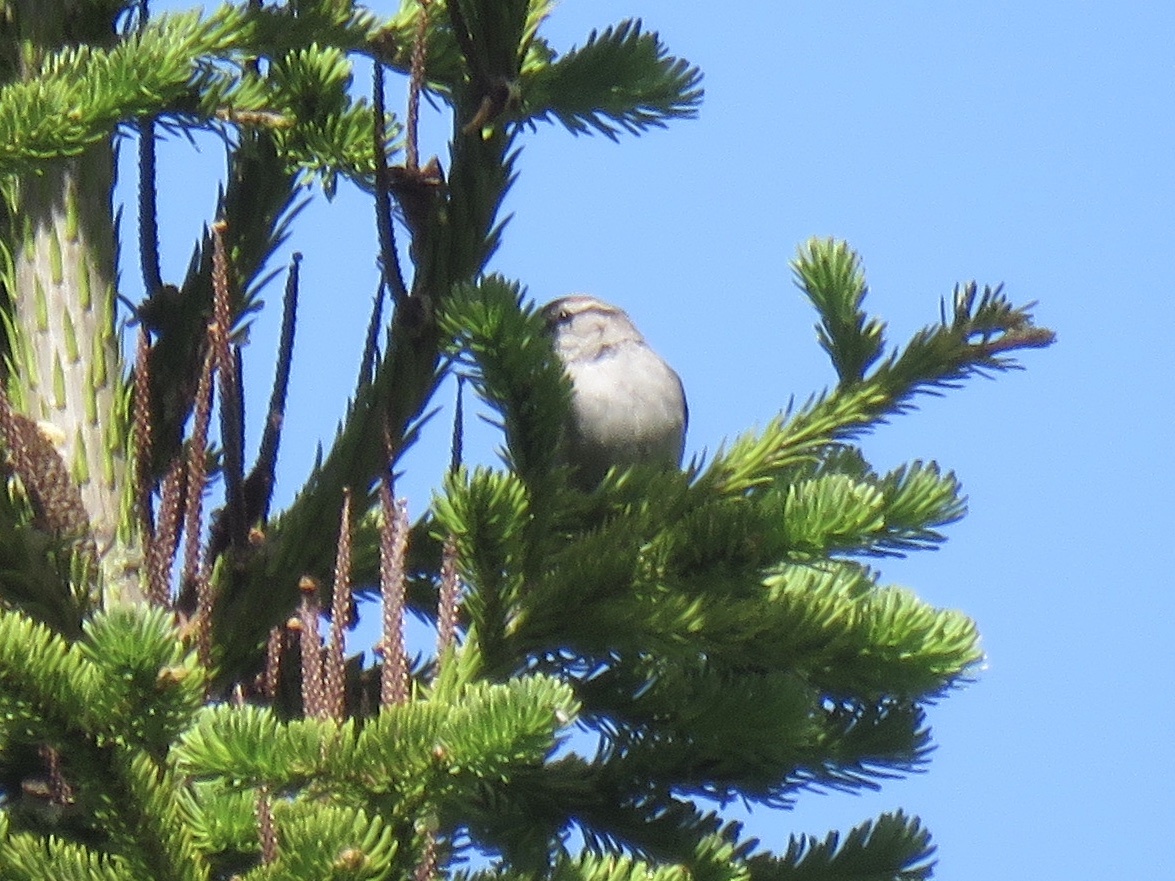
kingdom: Animalia
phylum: Chordata
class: Aves
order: Passeriformes
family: Passerellidae
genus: Spizella
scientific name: Spizella passerina
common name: Chipping sparrow
